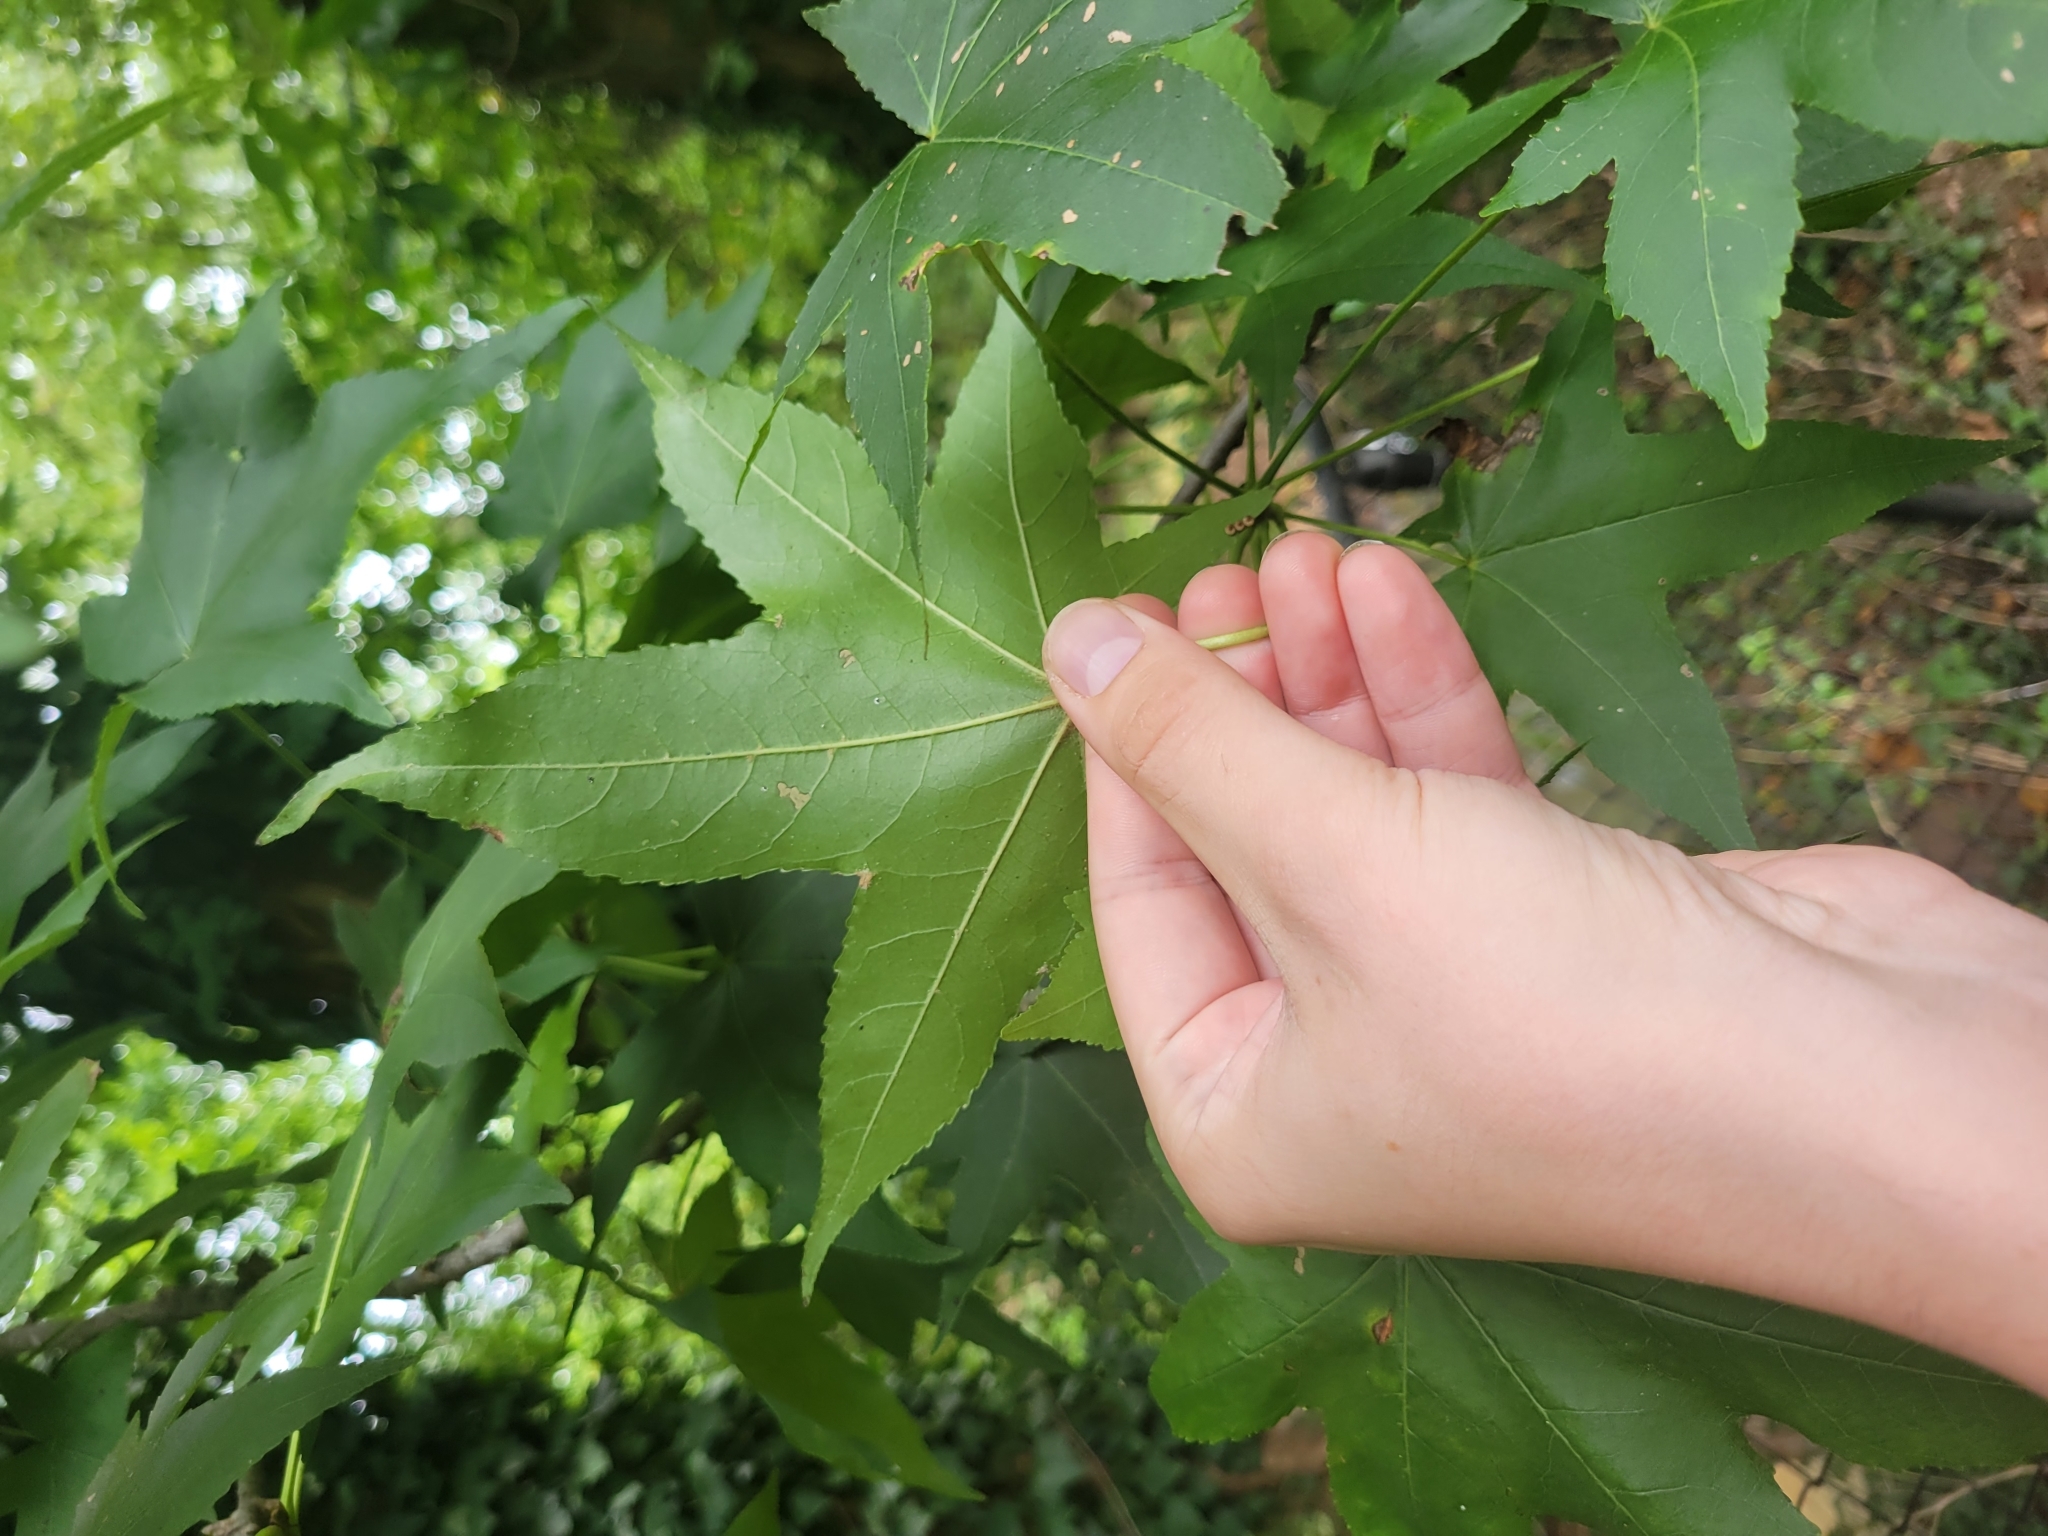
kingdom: Plantae
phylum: Tracheophyta
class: Magnoliopsida
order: Saxifragales
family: Altingiaceae
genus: Liquidambar
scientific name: Liquidambar styraciflua
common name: Sweet gum
